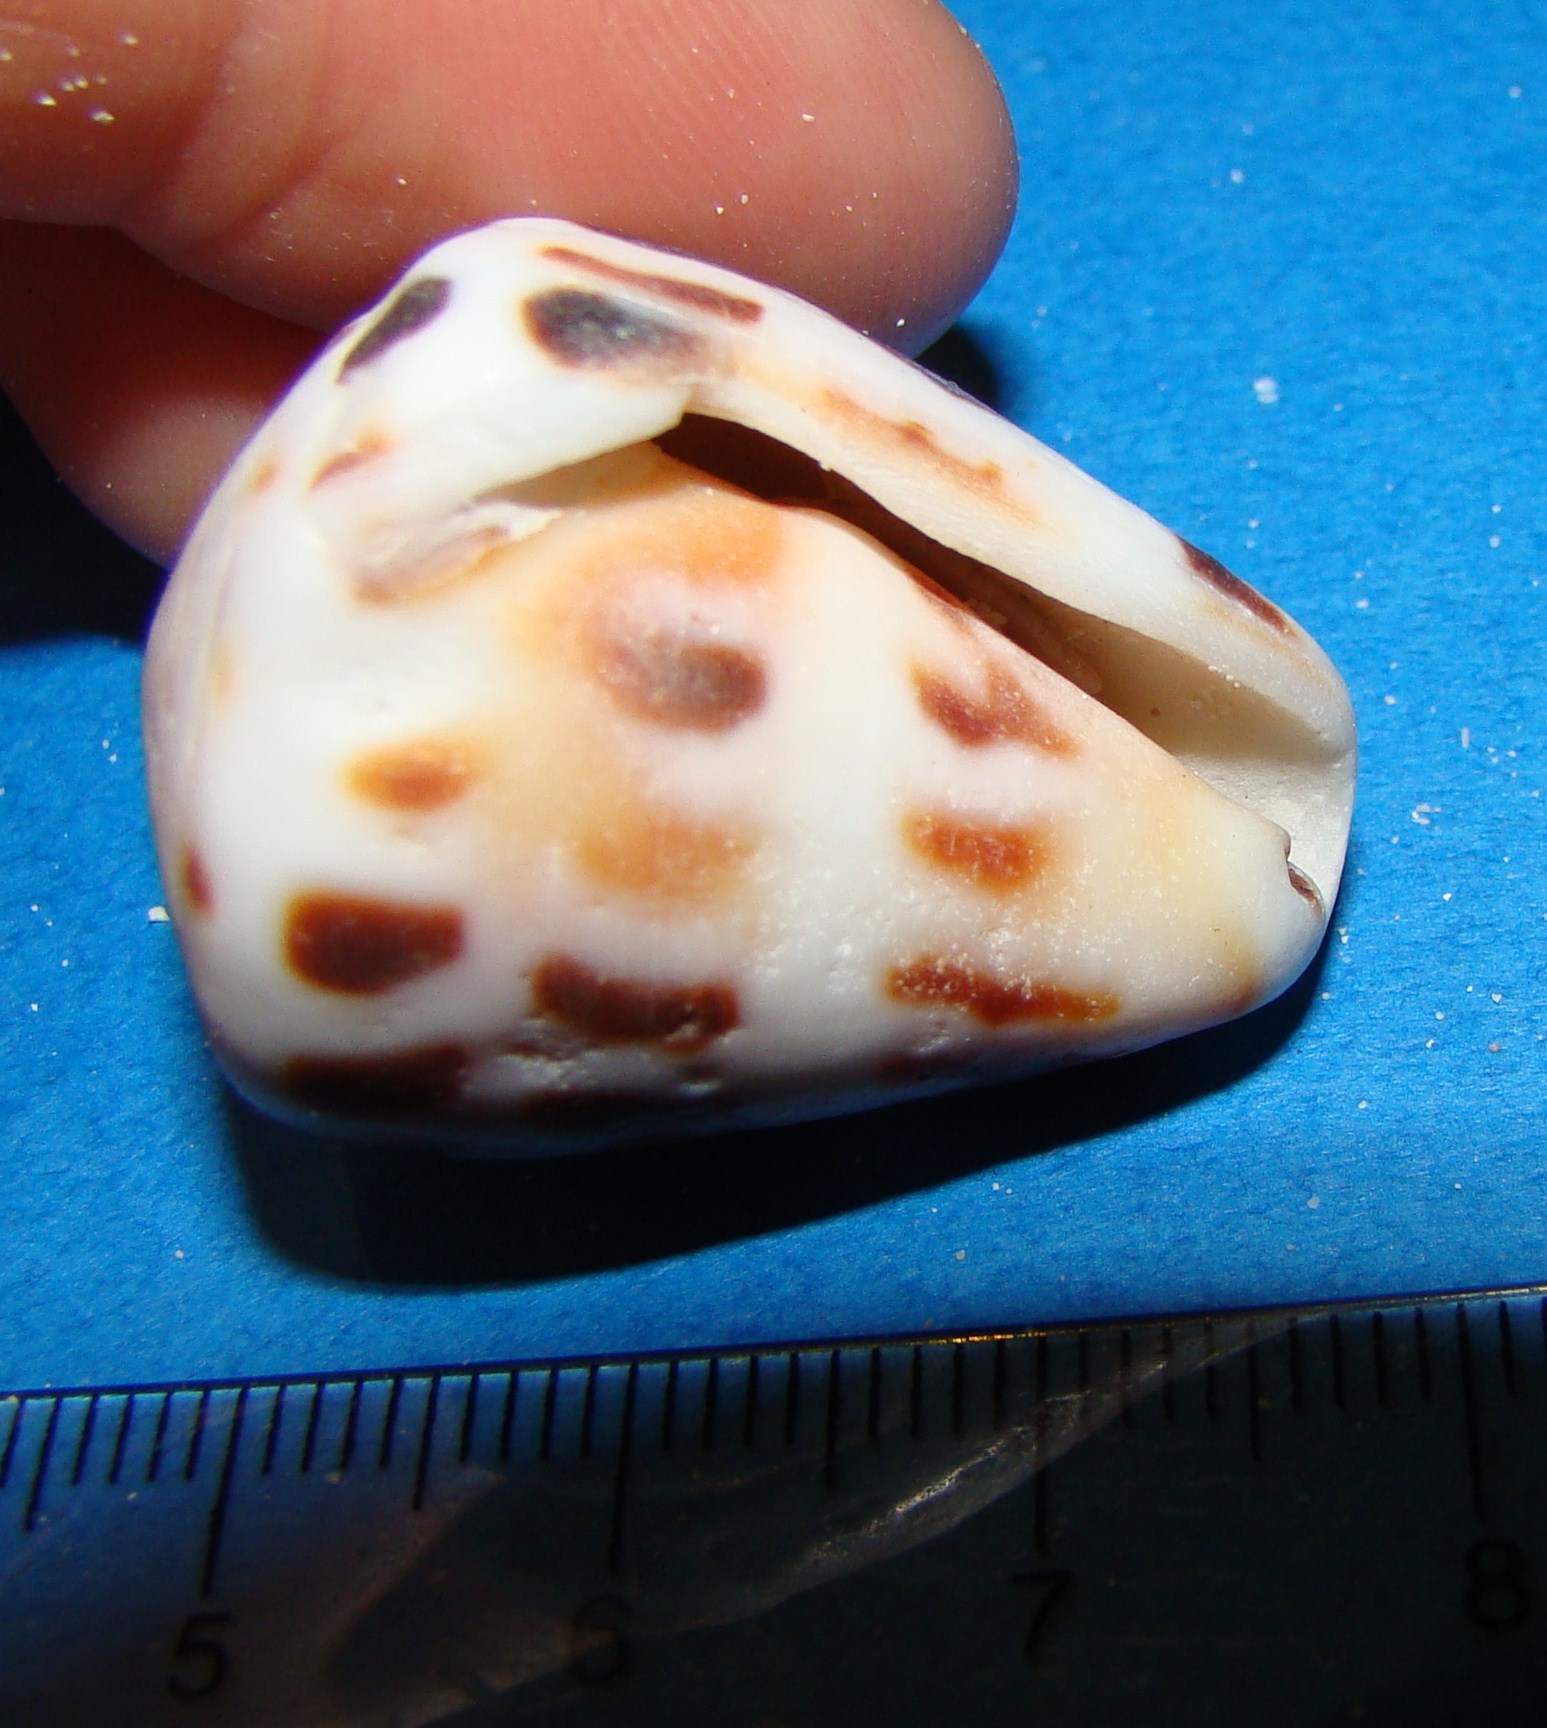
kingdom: Animalia
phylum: Mollusca
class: Gastropoda
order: Neogastropoda
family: Conidae
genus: Conus
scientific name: Conus ebraeus
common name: Hebrew cone
